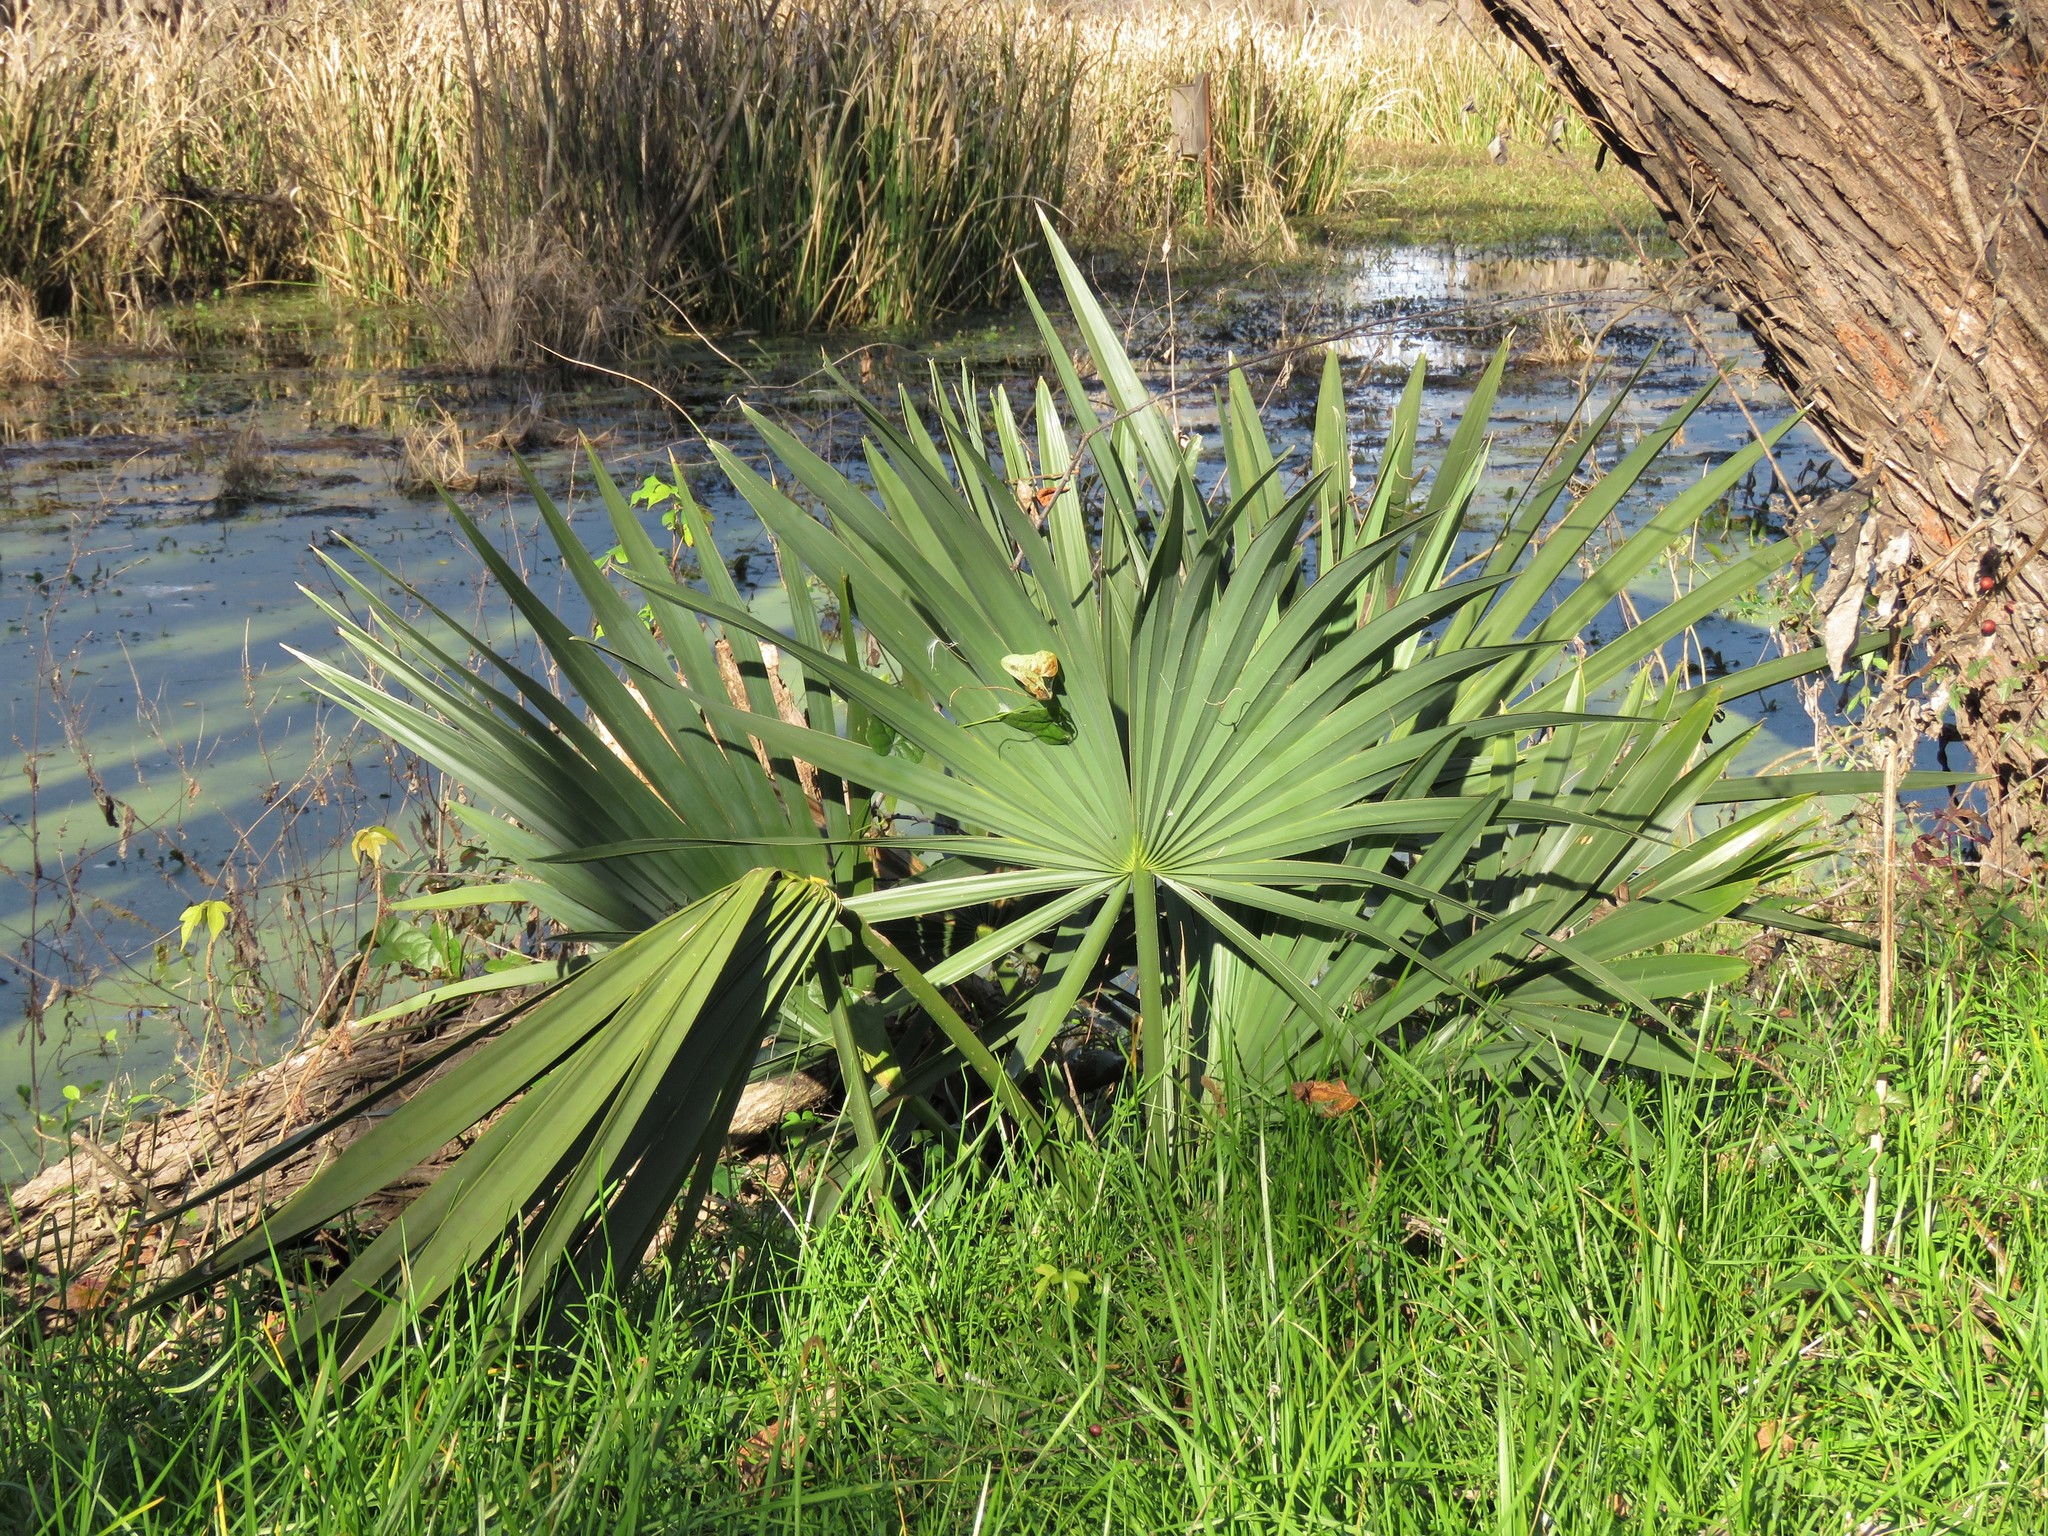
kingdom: Plantae
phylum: Tracheophyta
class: Liliopsida
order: Arecales
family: Arecaceae
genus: Sabal
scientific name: Sabal minor
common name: Dwarf palmetto
